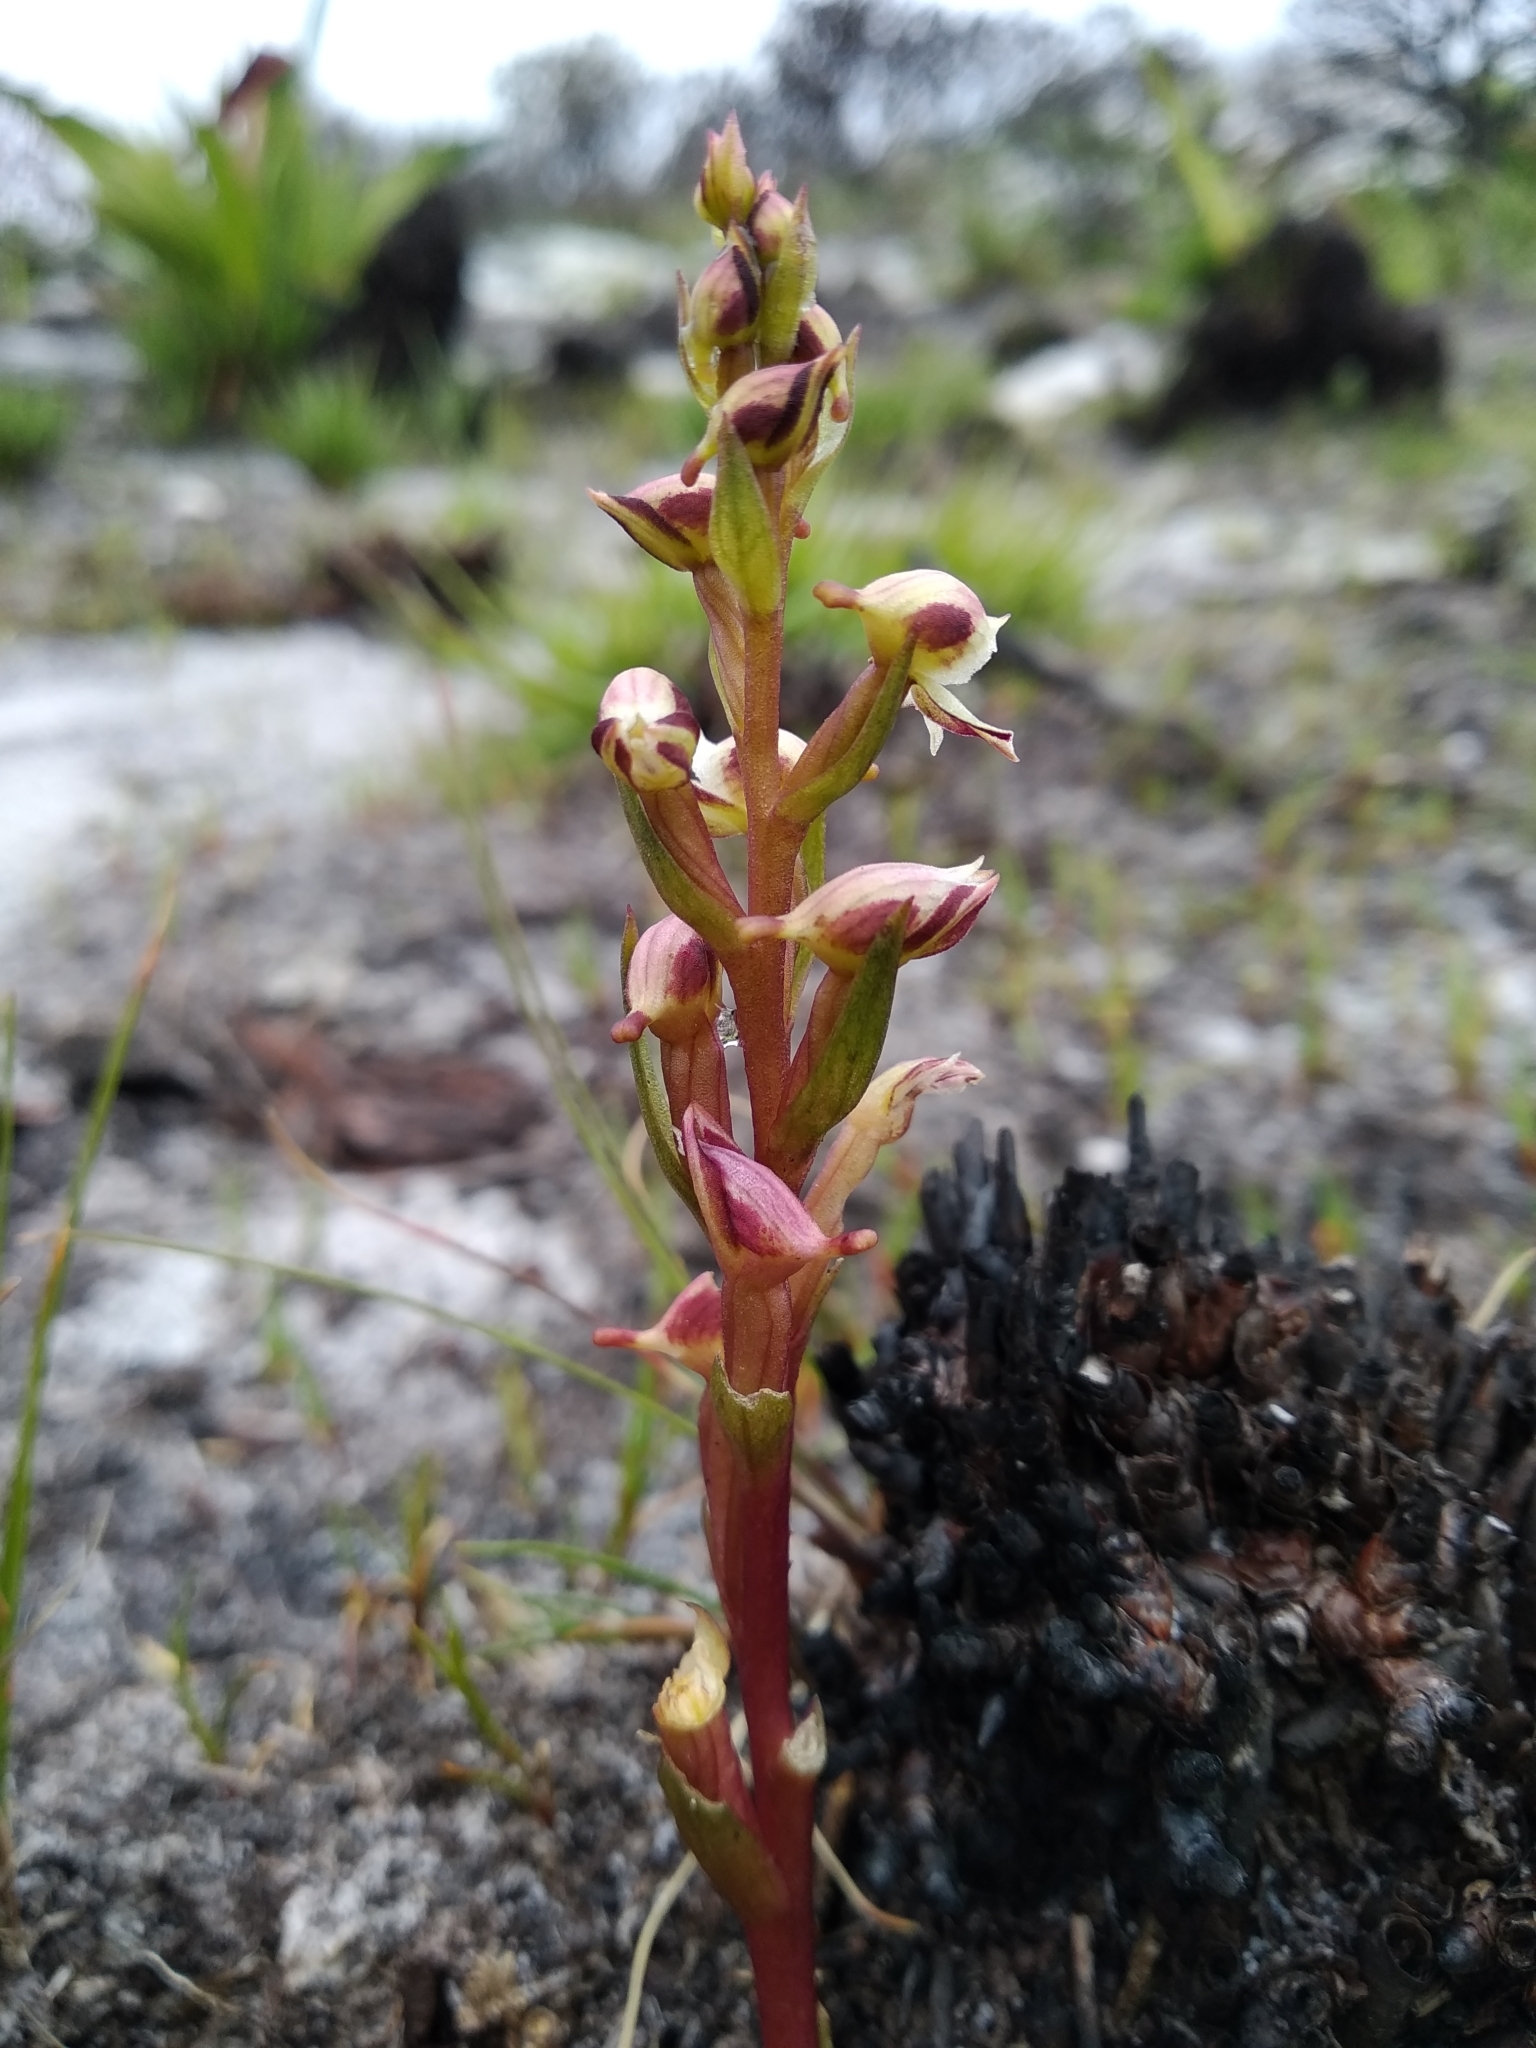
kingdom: Plantae
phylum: Tracheophyta
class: Liliopsida
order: Asparagales
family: Orchidaceae
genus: Disa
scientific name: Disa ocellata
